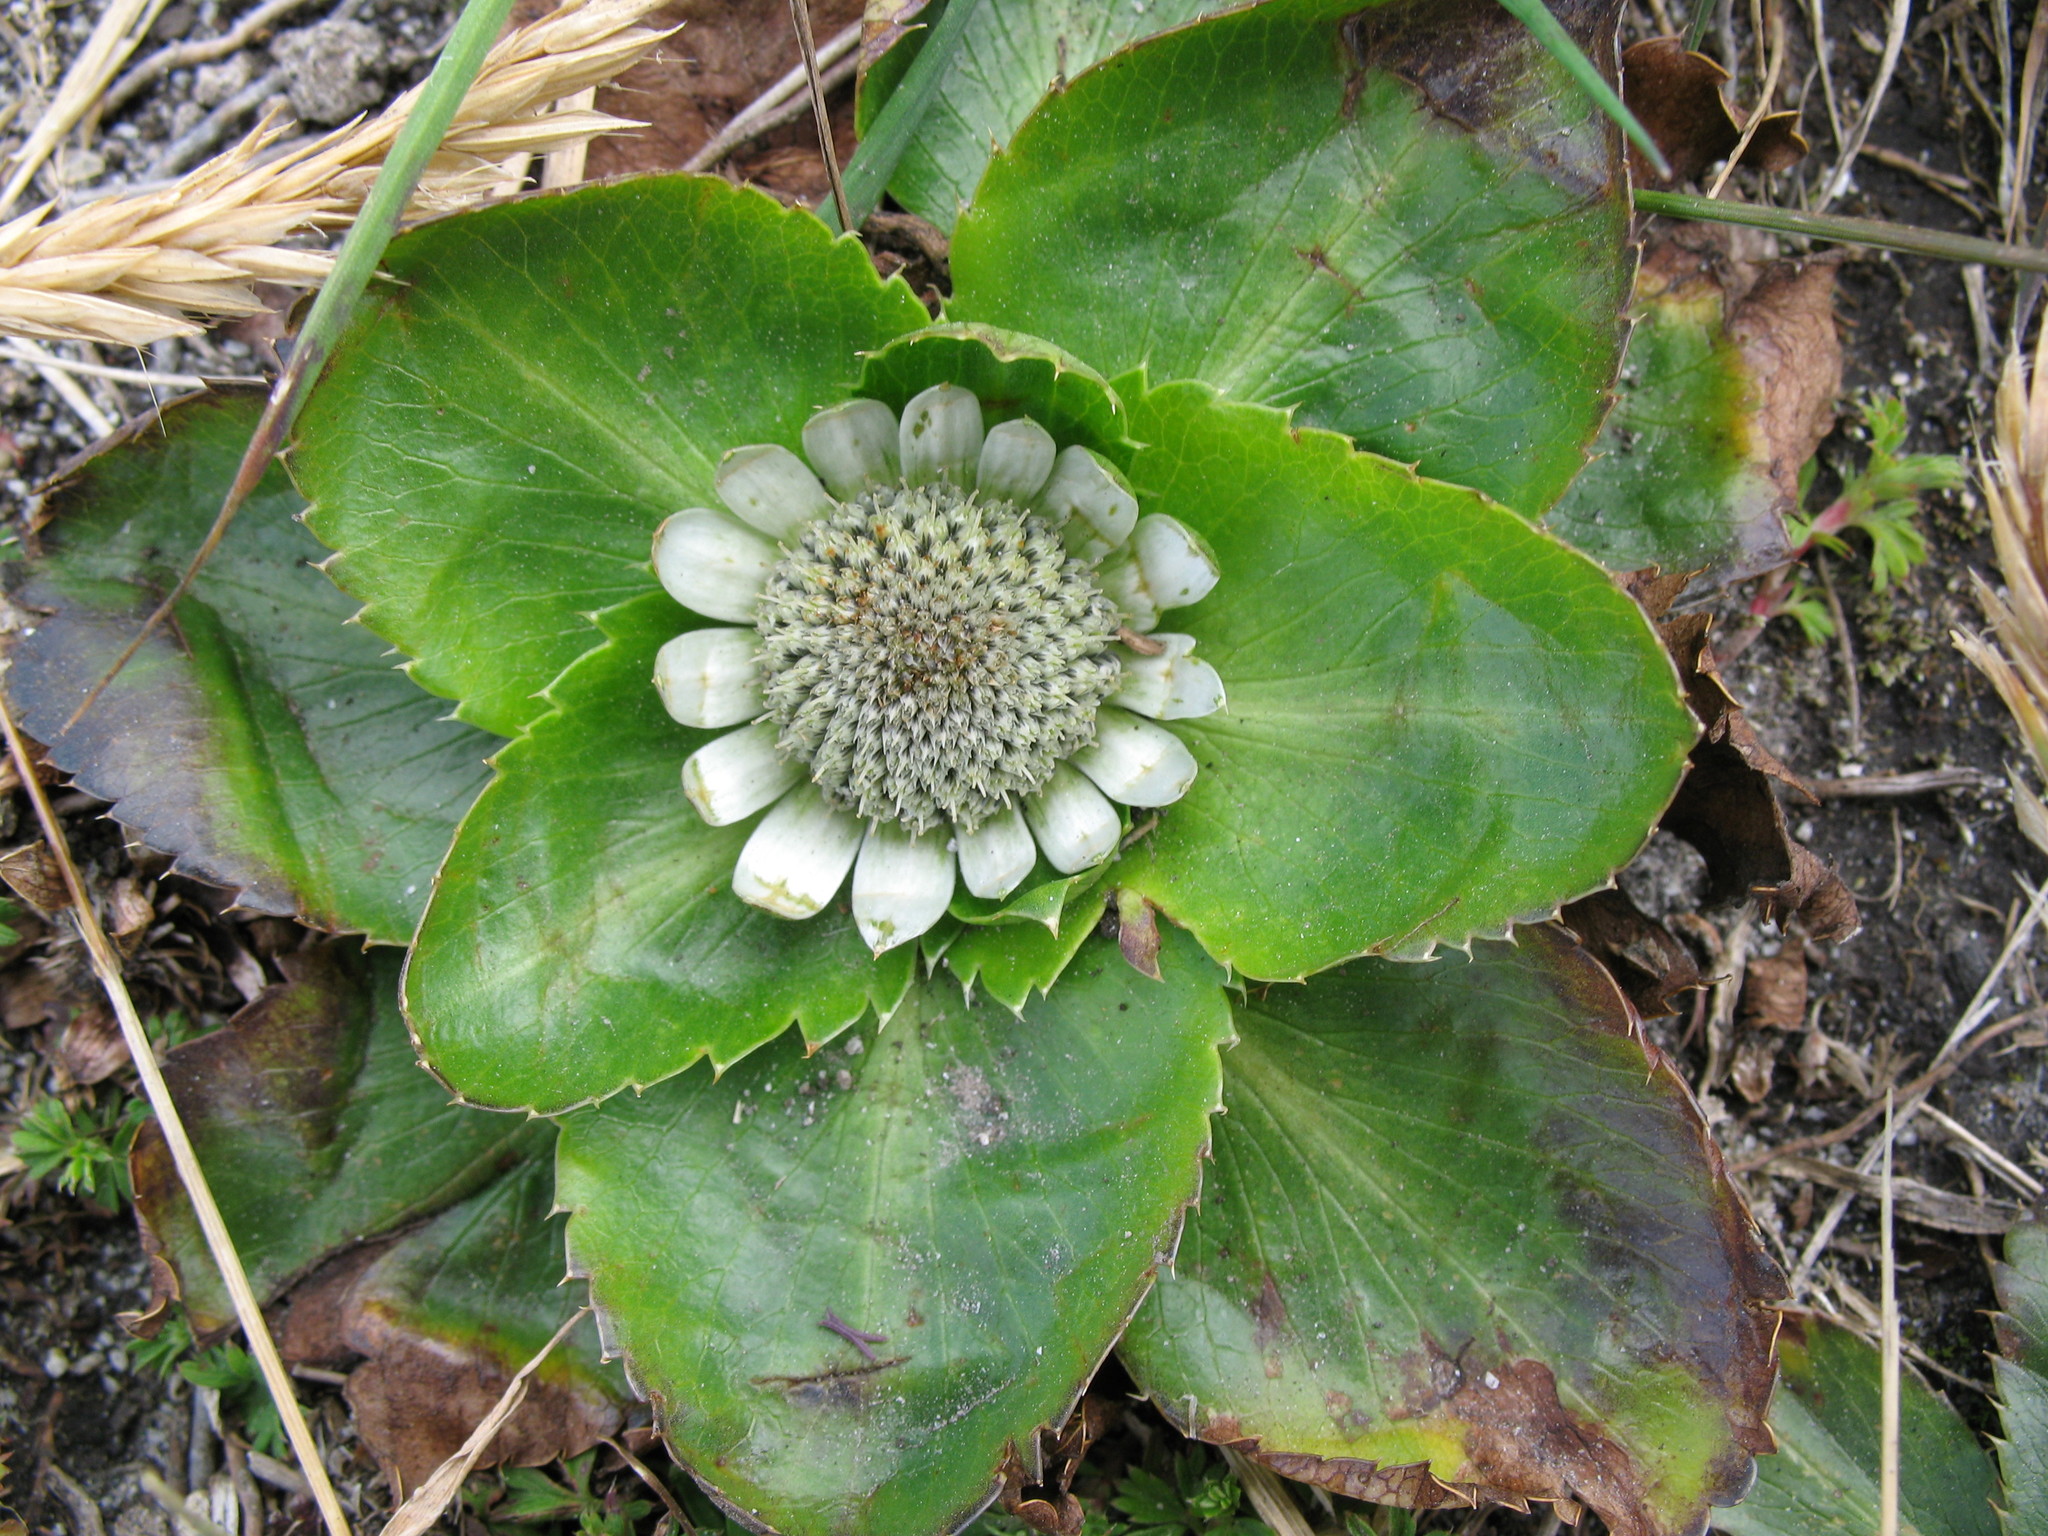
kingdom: Plantae
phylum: Tracheophyta
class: Magnoliopsida
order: Apiales
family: Apiaceae
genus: Eryngium
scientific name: Eryngium humile
